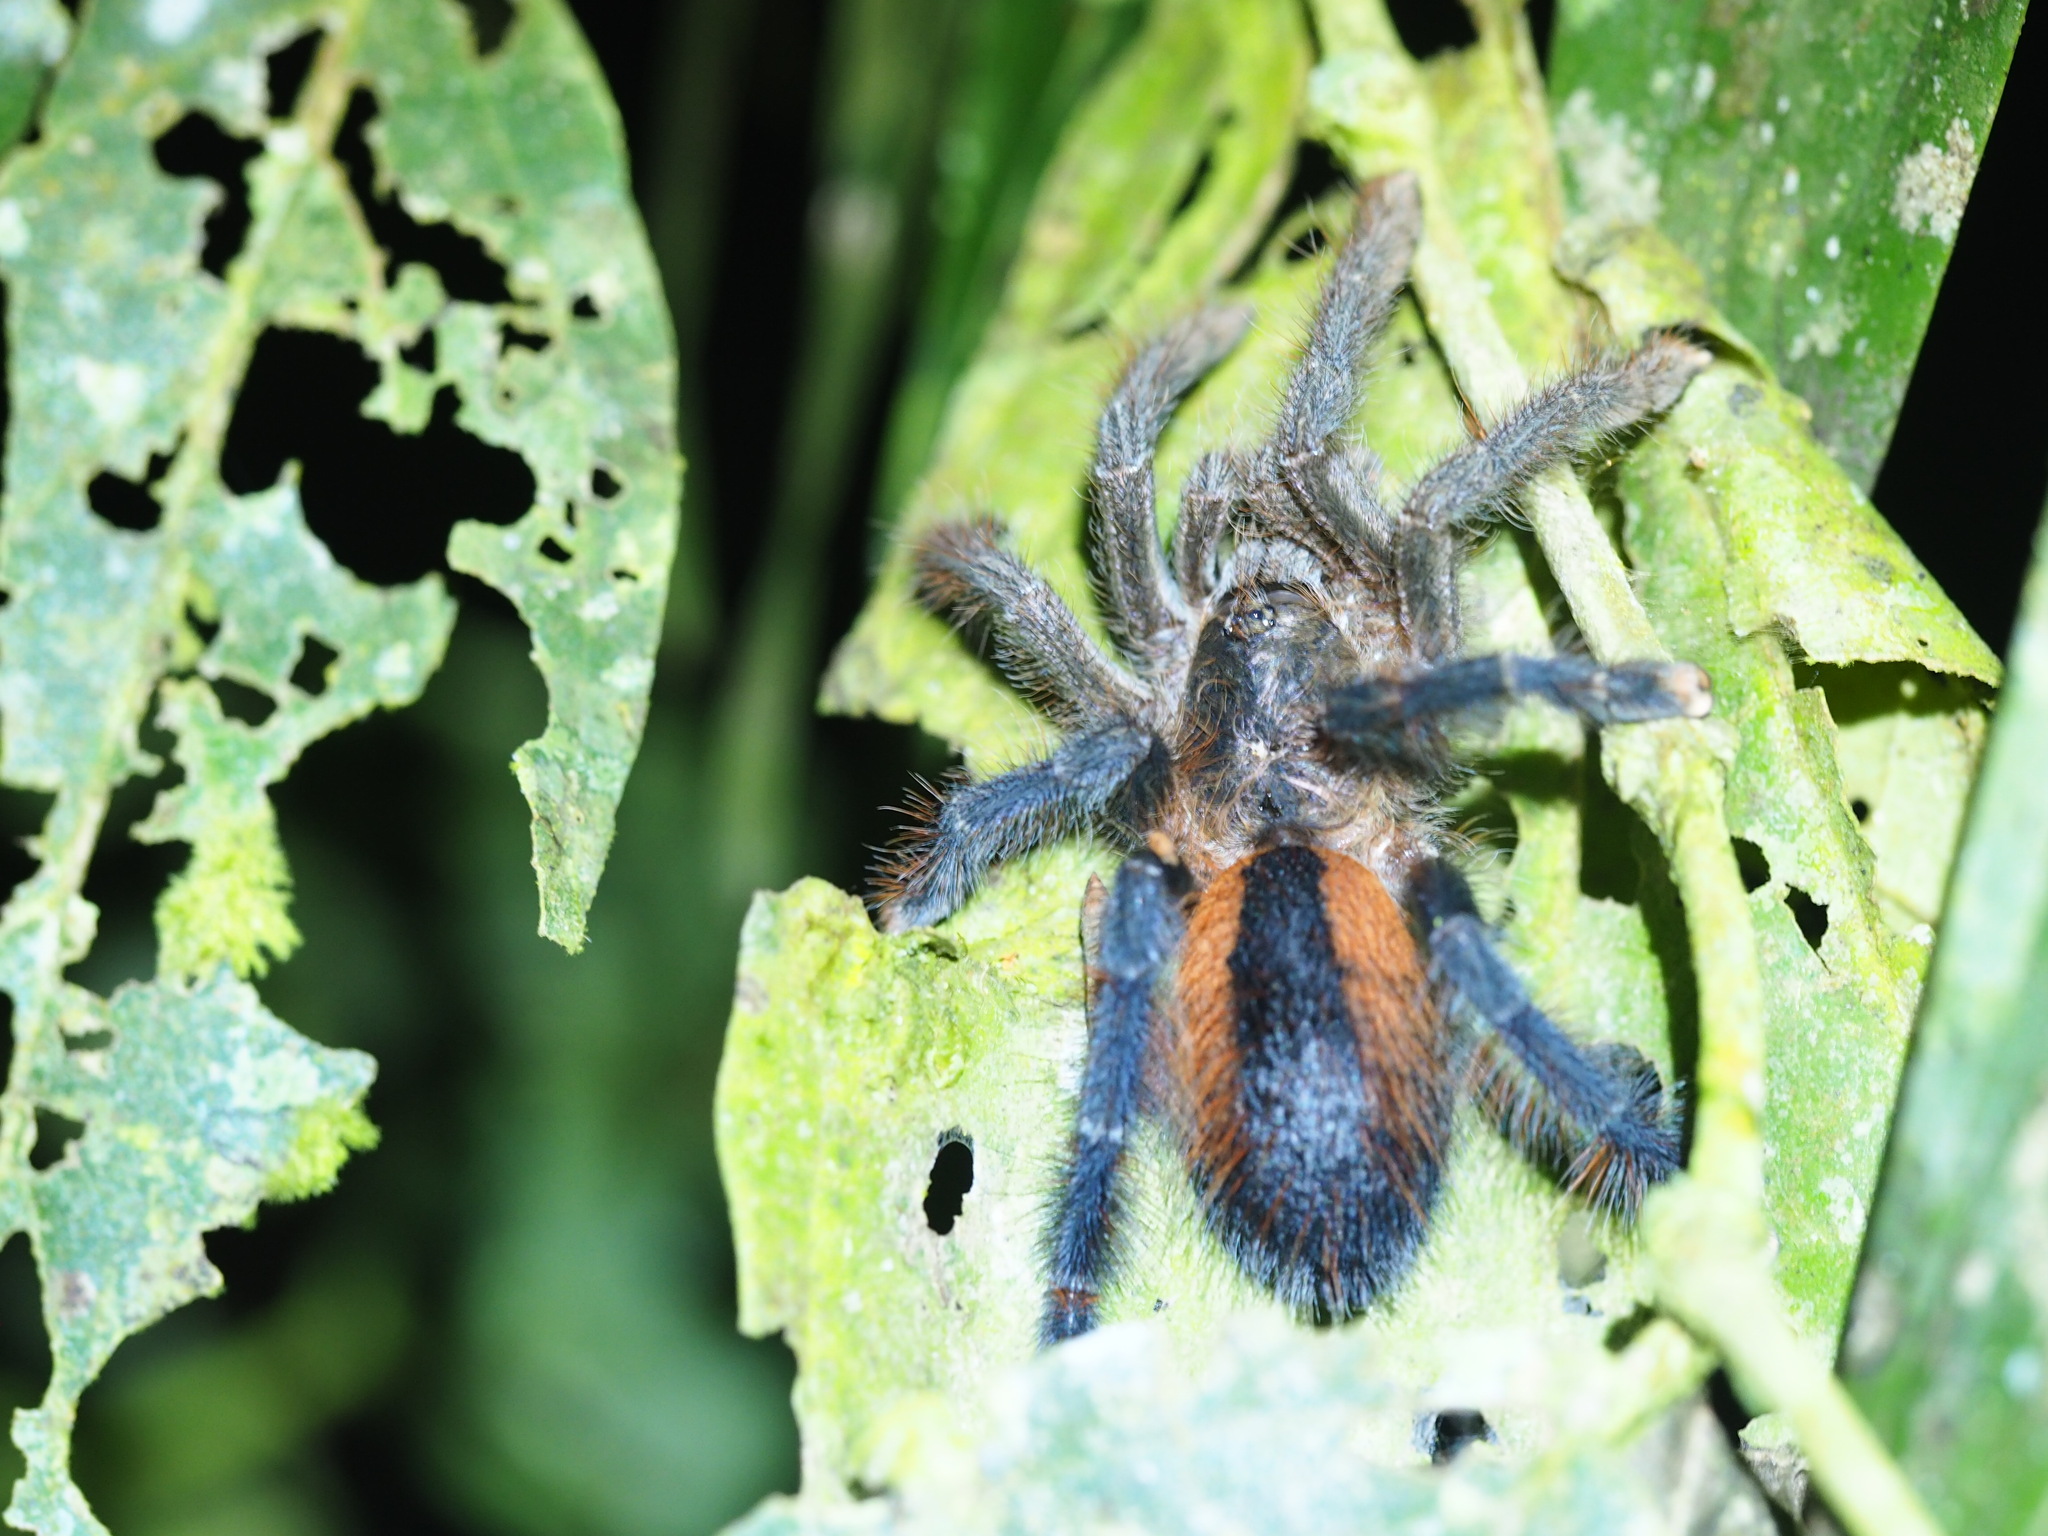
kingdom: Animalia
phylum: Arthropoda
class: Arachnida
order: Araneae
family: Theraphosidae
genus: Avicularia
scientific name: Avicularia hirschii
